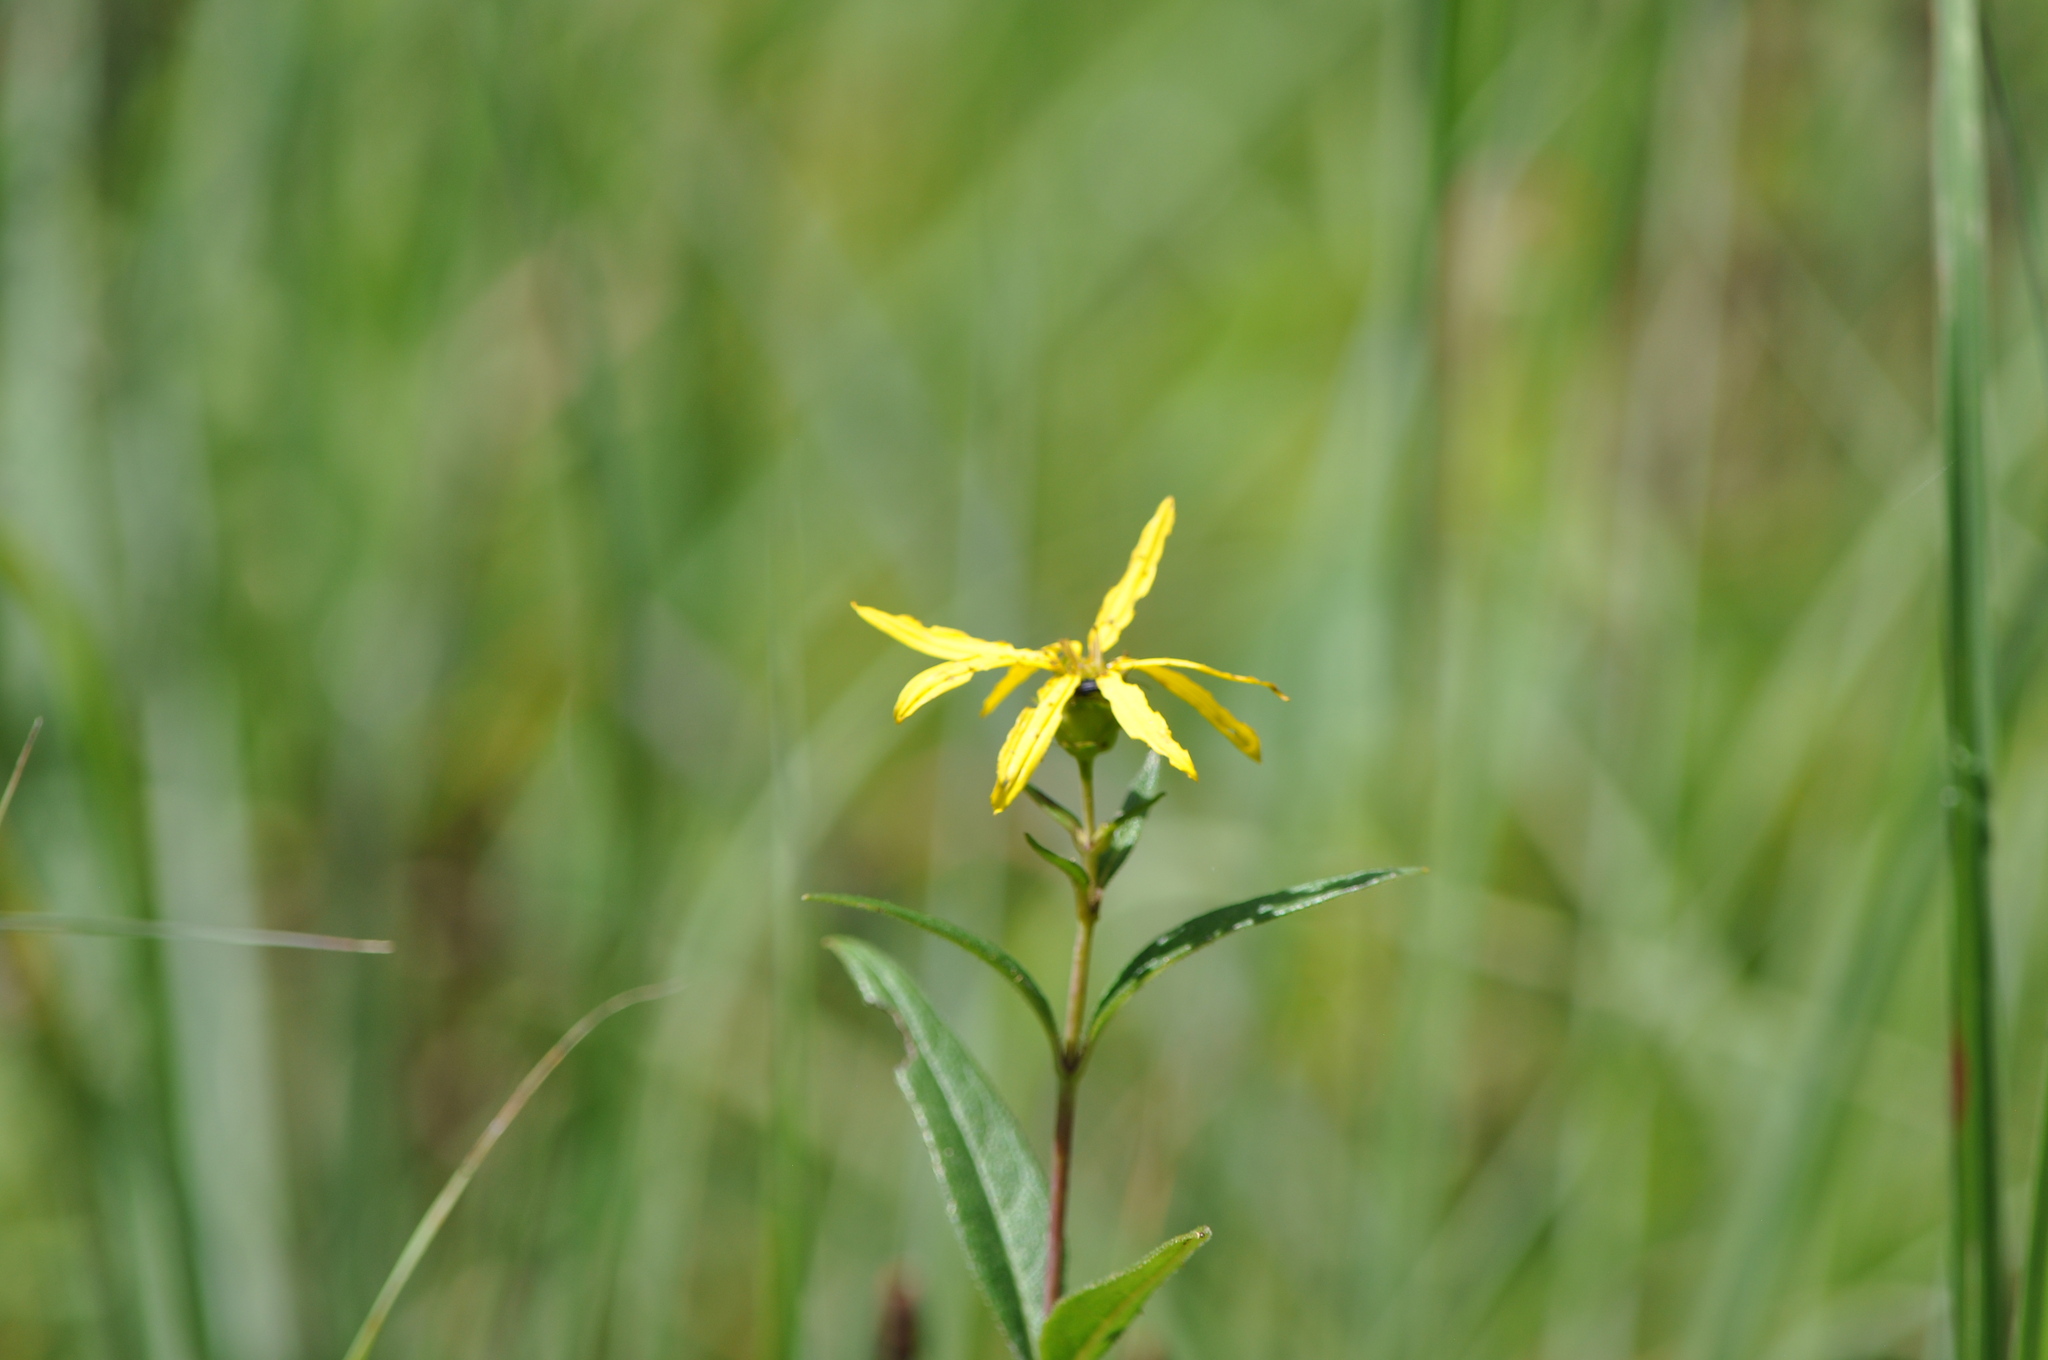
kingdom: Plantae
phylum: Tracheophyta
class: Magnoliopsida
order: Asterales
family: Asteraceae
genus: Silphium
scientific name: Silphium asteriscus
